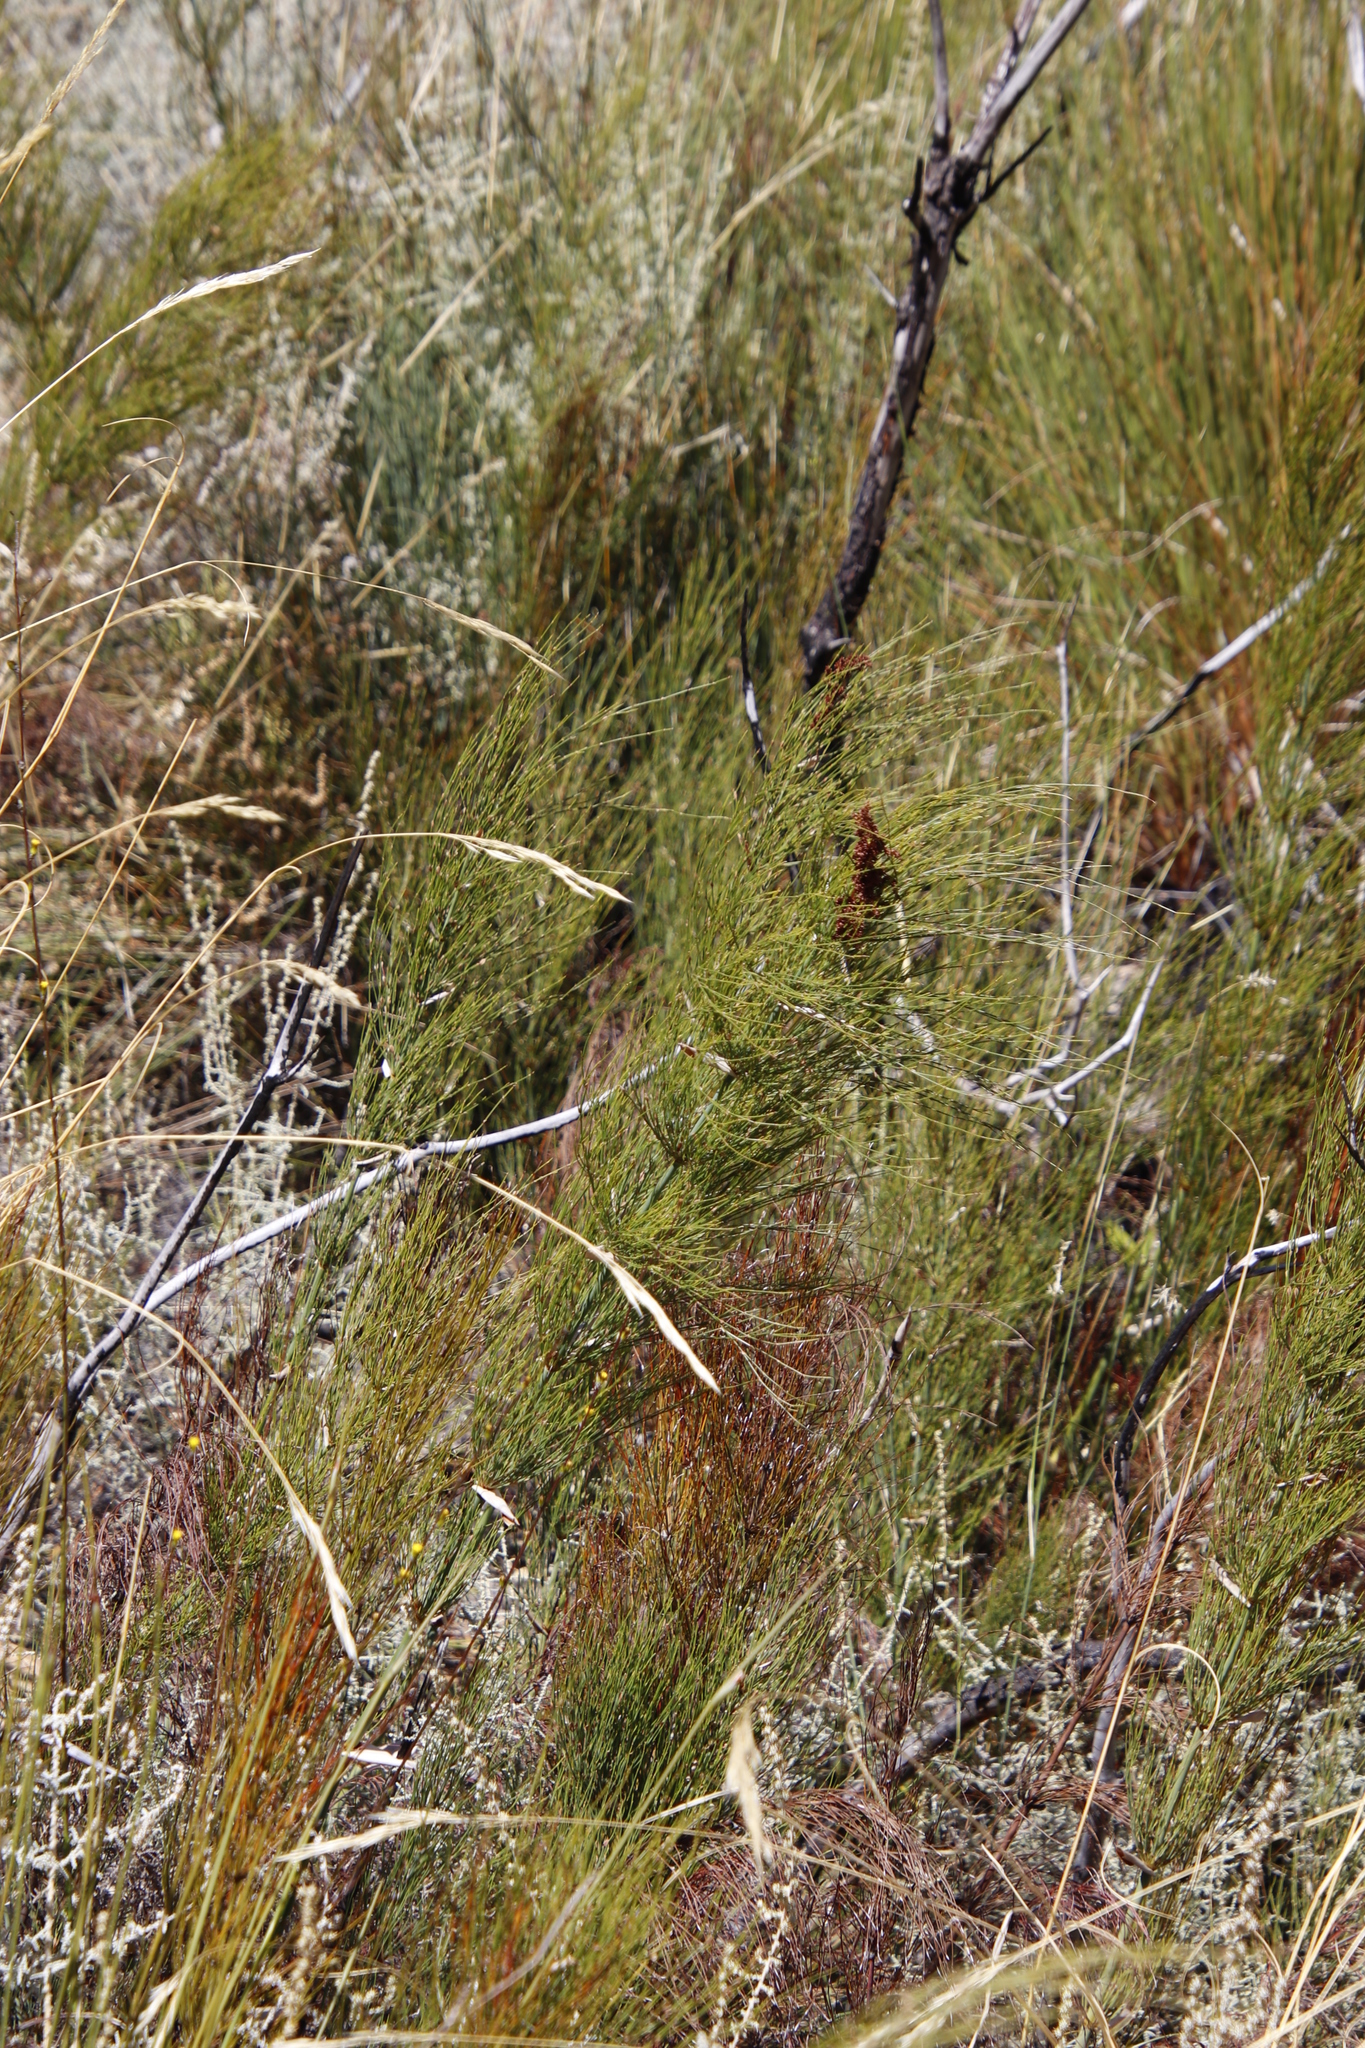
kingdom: Plantae
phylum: Tracheophyta
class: Liliopsida
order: Poales
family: Restionaceae
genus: Elegia
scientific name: Elegia capensis
